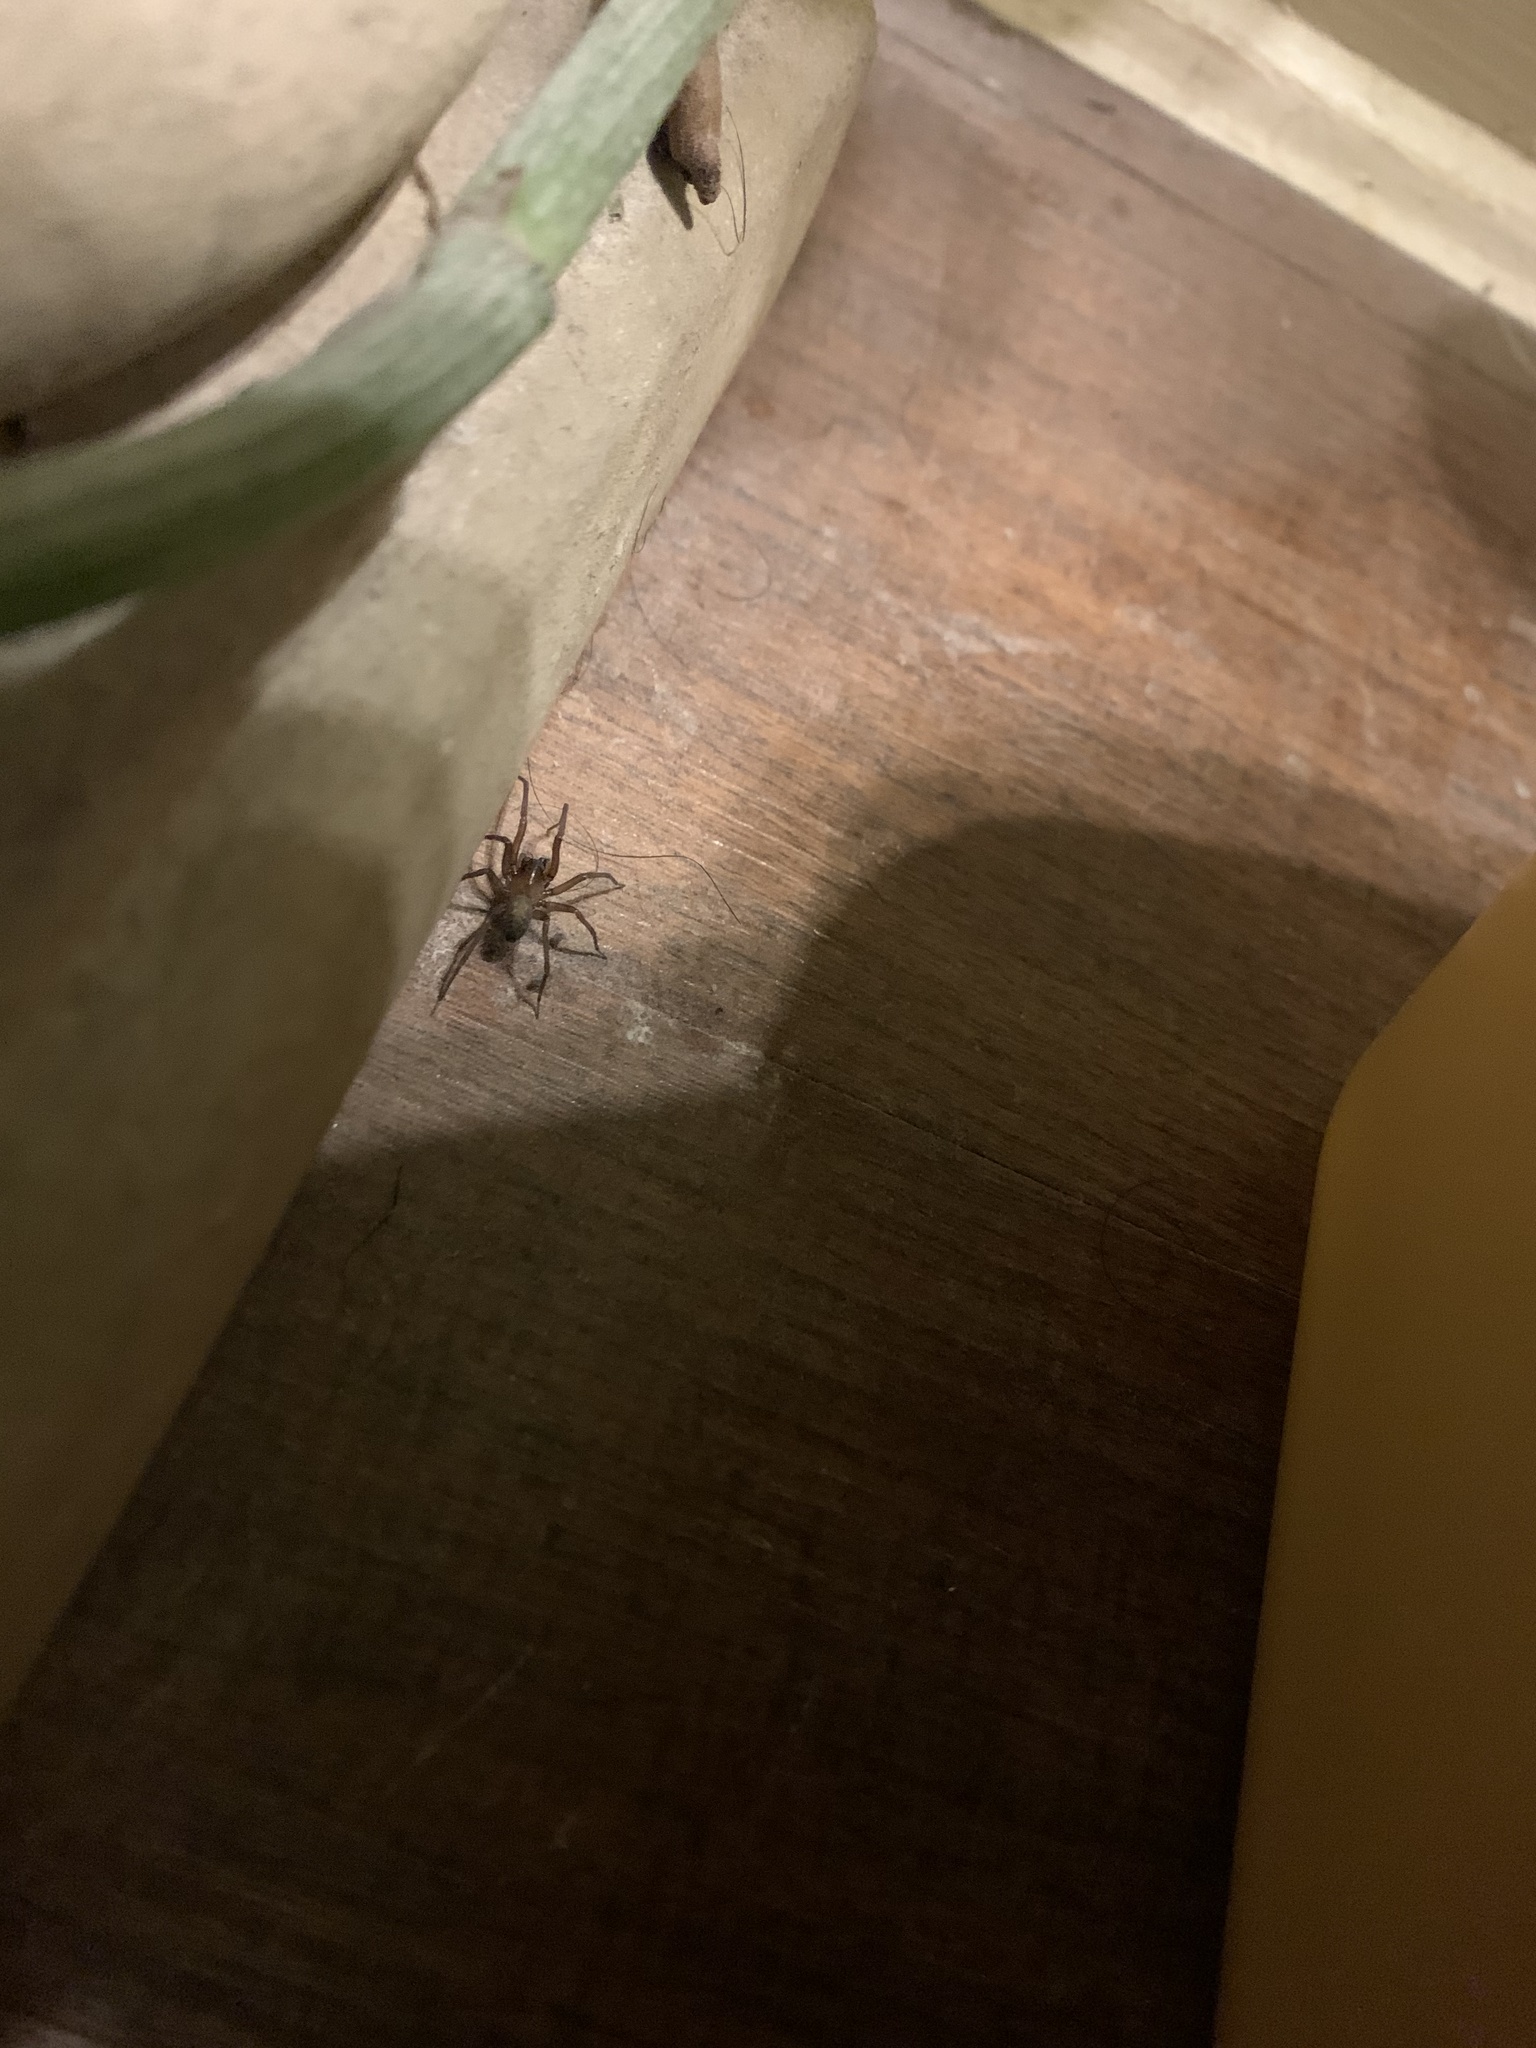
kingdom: Animalia
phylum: Arthropoda
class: Arachnida
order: Araneae
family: Desidae
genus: Metaltella
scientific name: Metaltella simoni
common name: Cribellate spider
